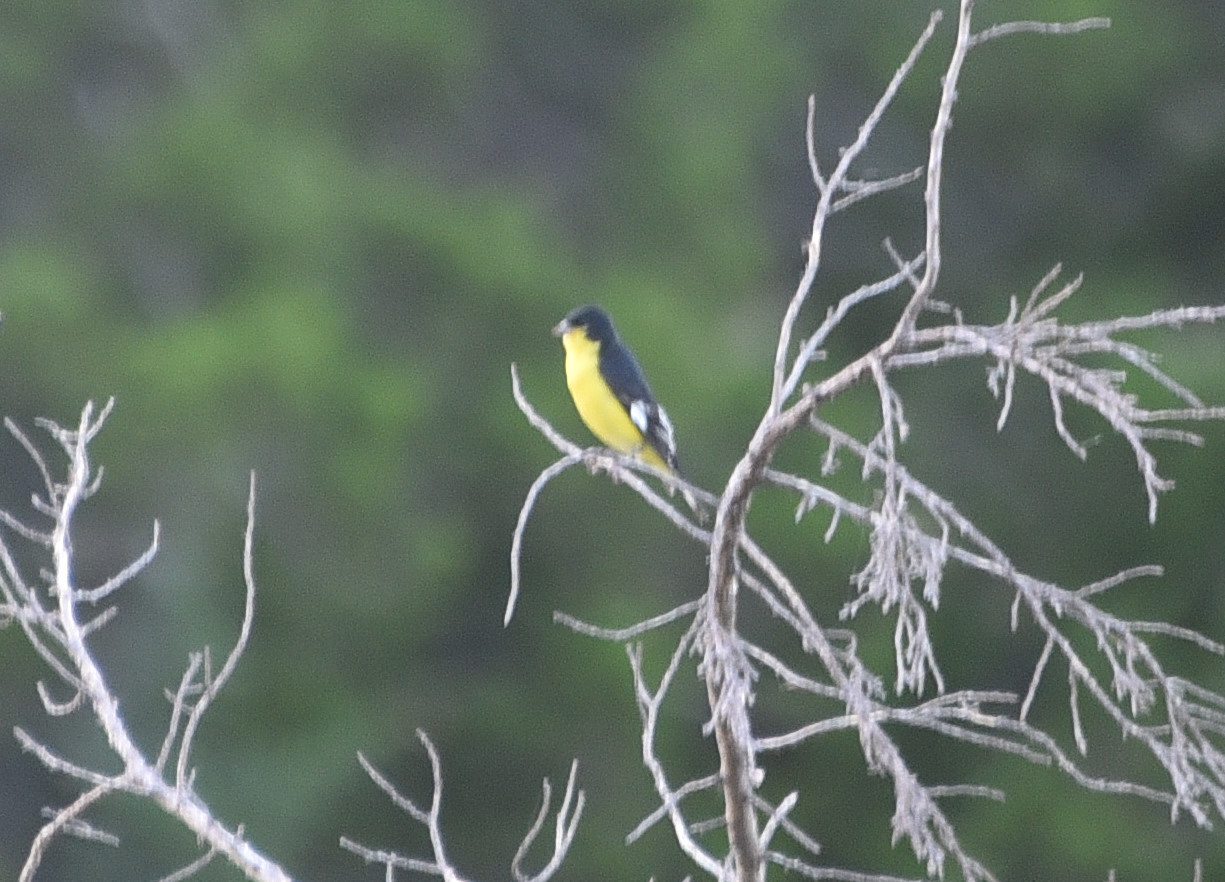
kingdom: Animalia
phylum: Chordata
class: Aves
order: Passeriformes
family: Fringillidae
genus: Spinus
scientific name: Spinus psaltria
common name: Lesser goldfinch
